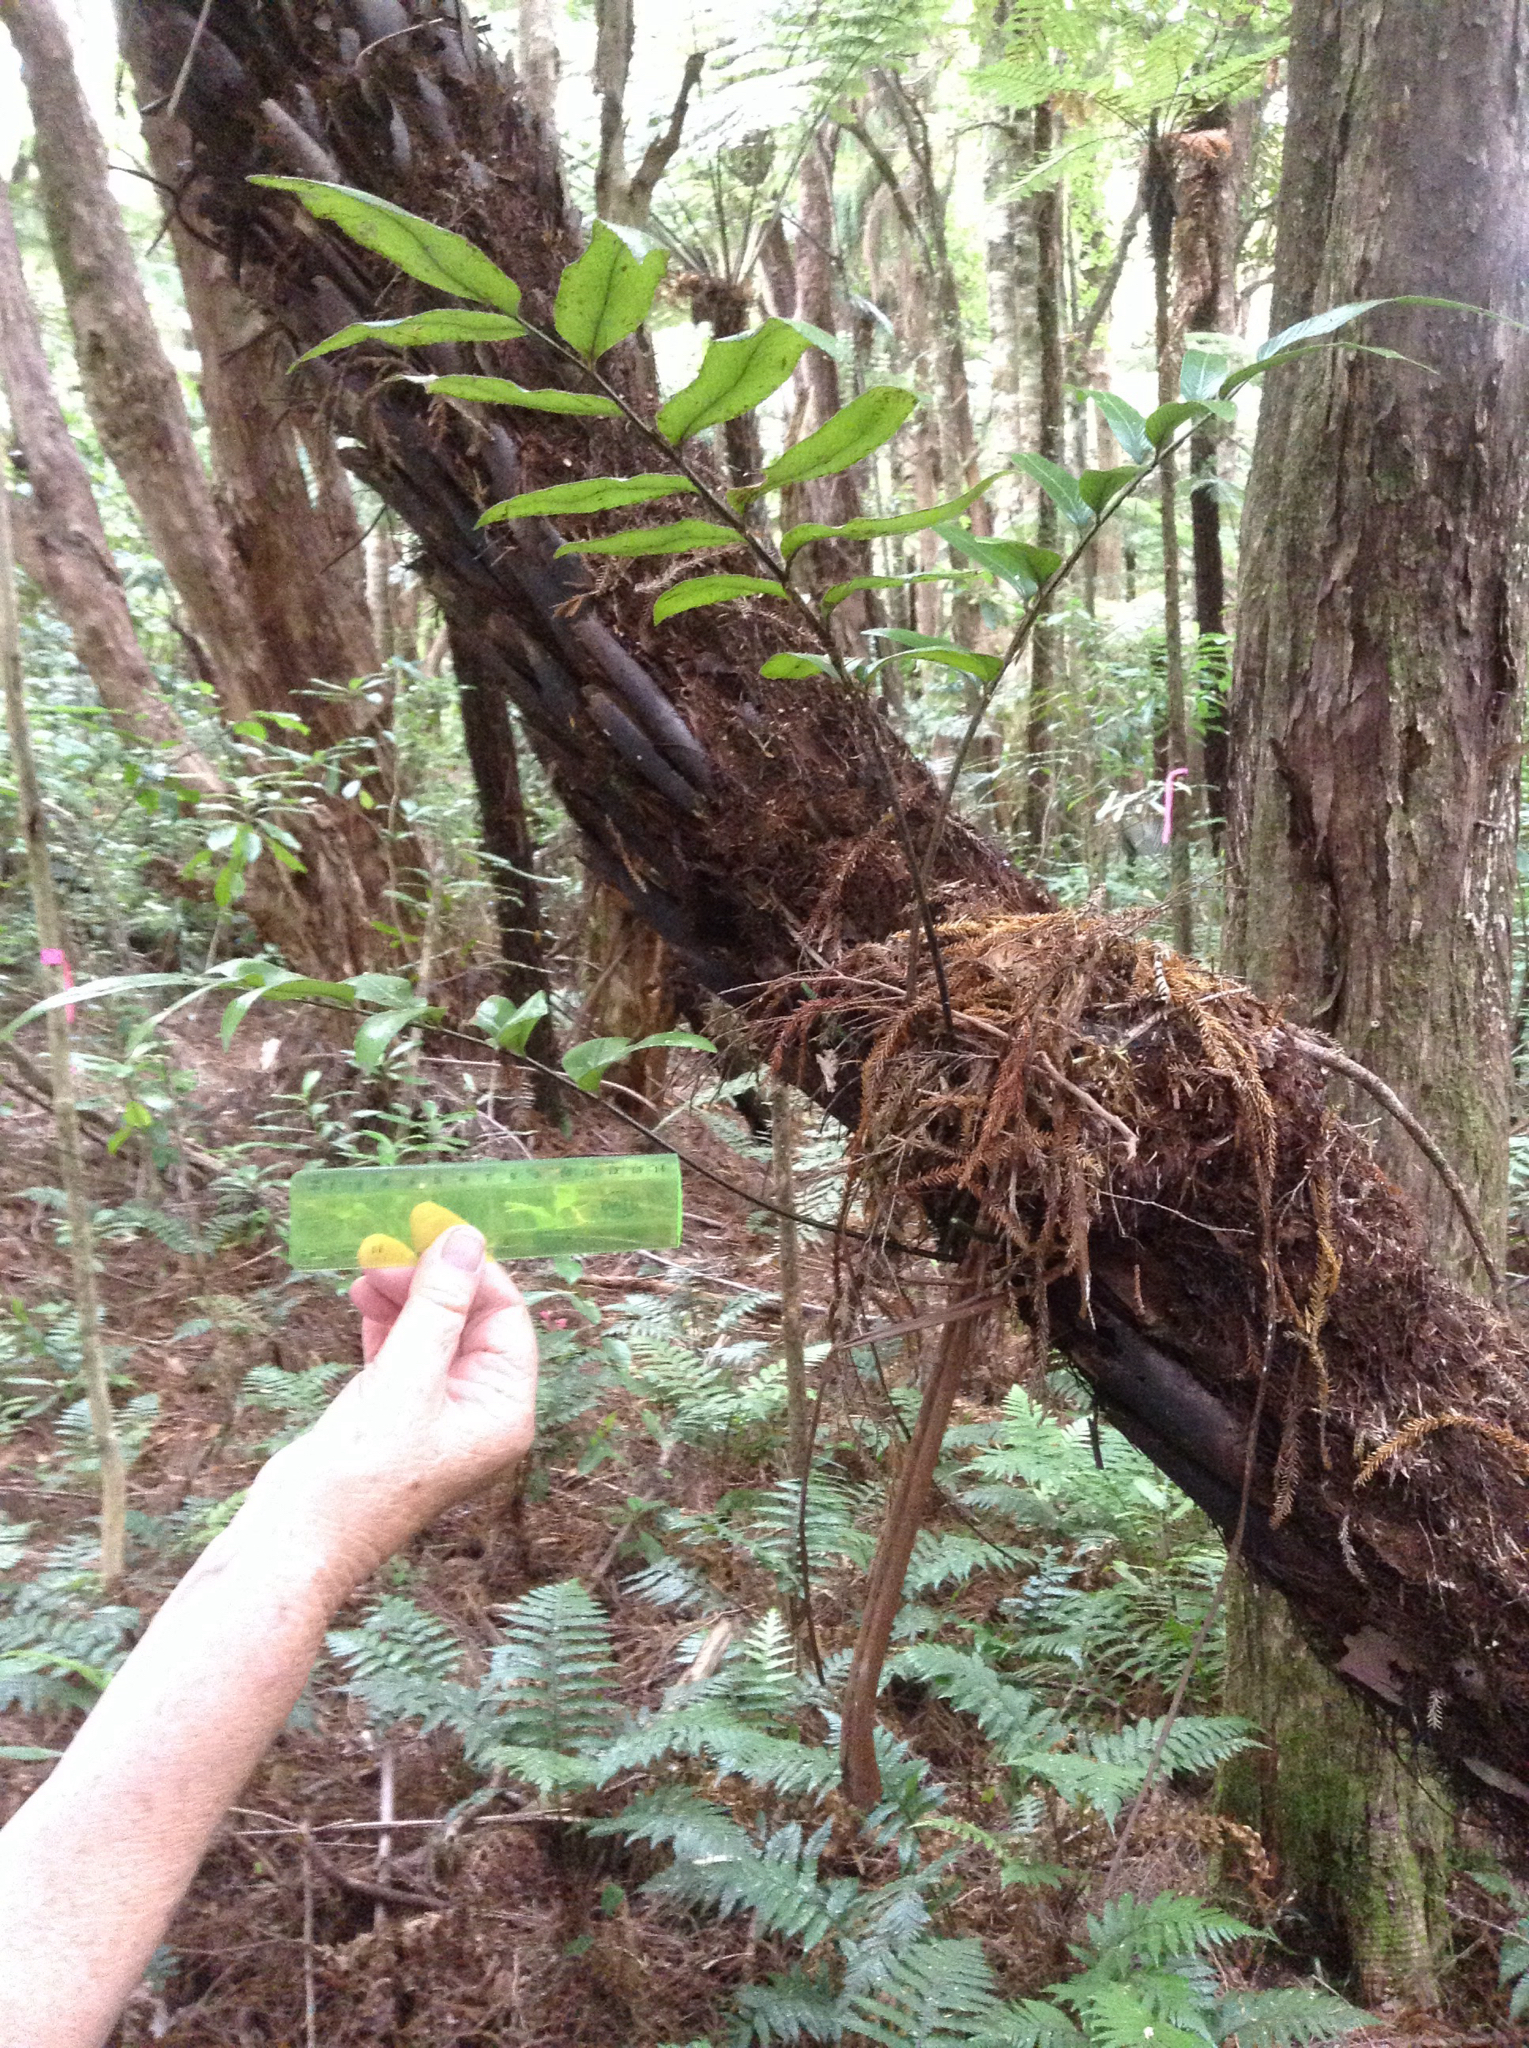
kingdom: Plantae
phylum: Tracheophyta
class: Polypodiopsida
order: Polypodiales
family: Aspleniaceae
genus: Asplenium
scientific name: Asplenium oblongifolium
